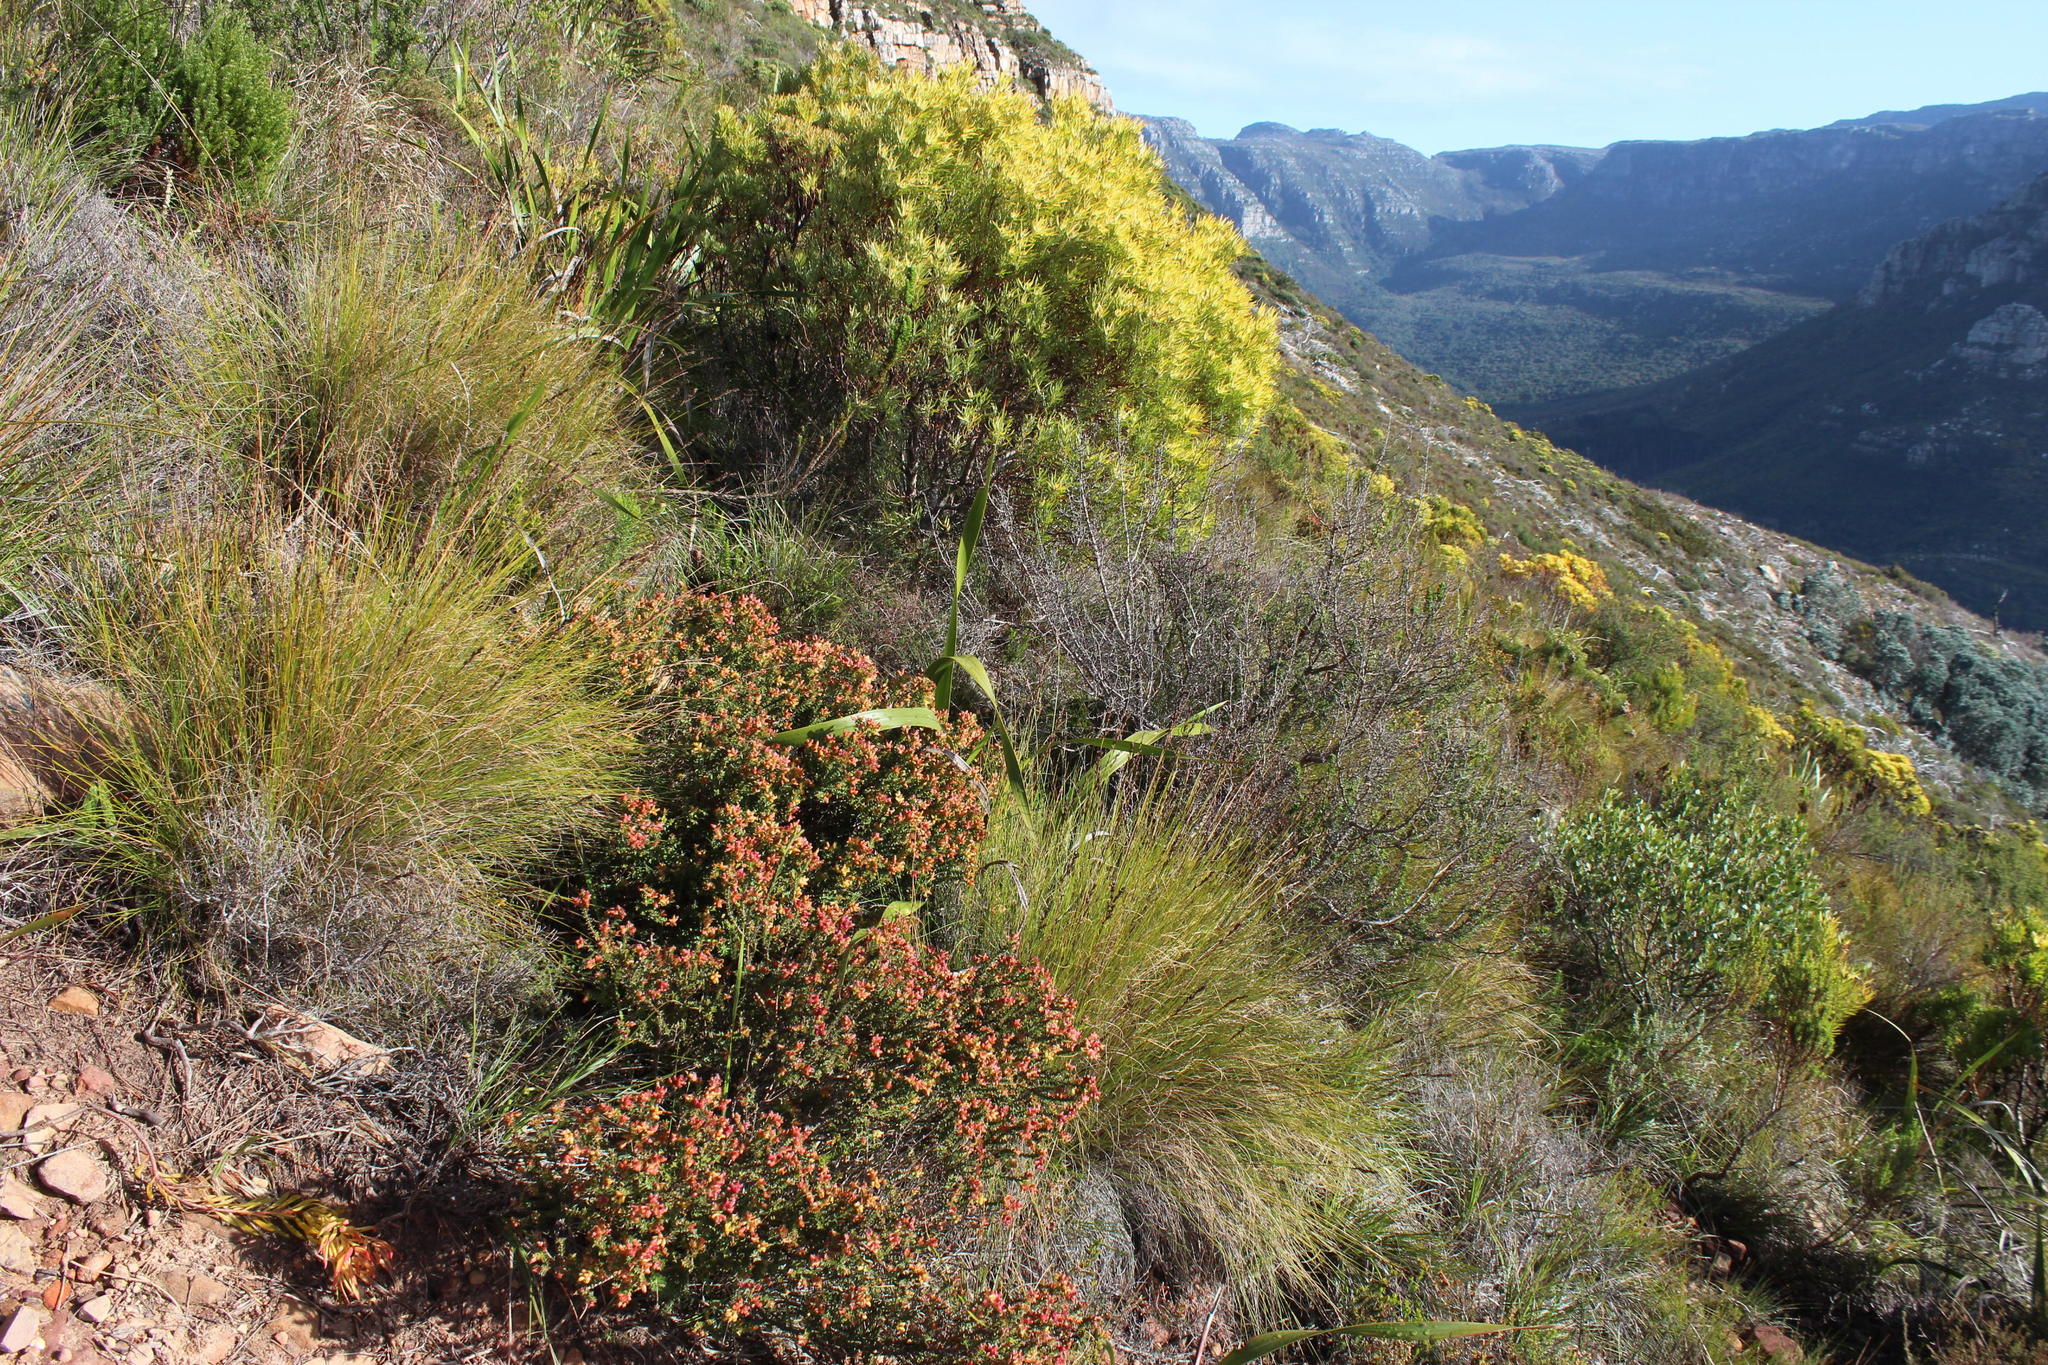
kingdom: Plantae
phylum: Tracheophyta
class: Magnoliopsida
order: Myrtales
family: Penaeaceae
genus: Penaea
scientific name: Penaea mucronata
